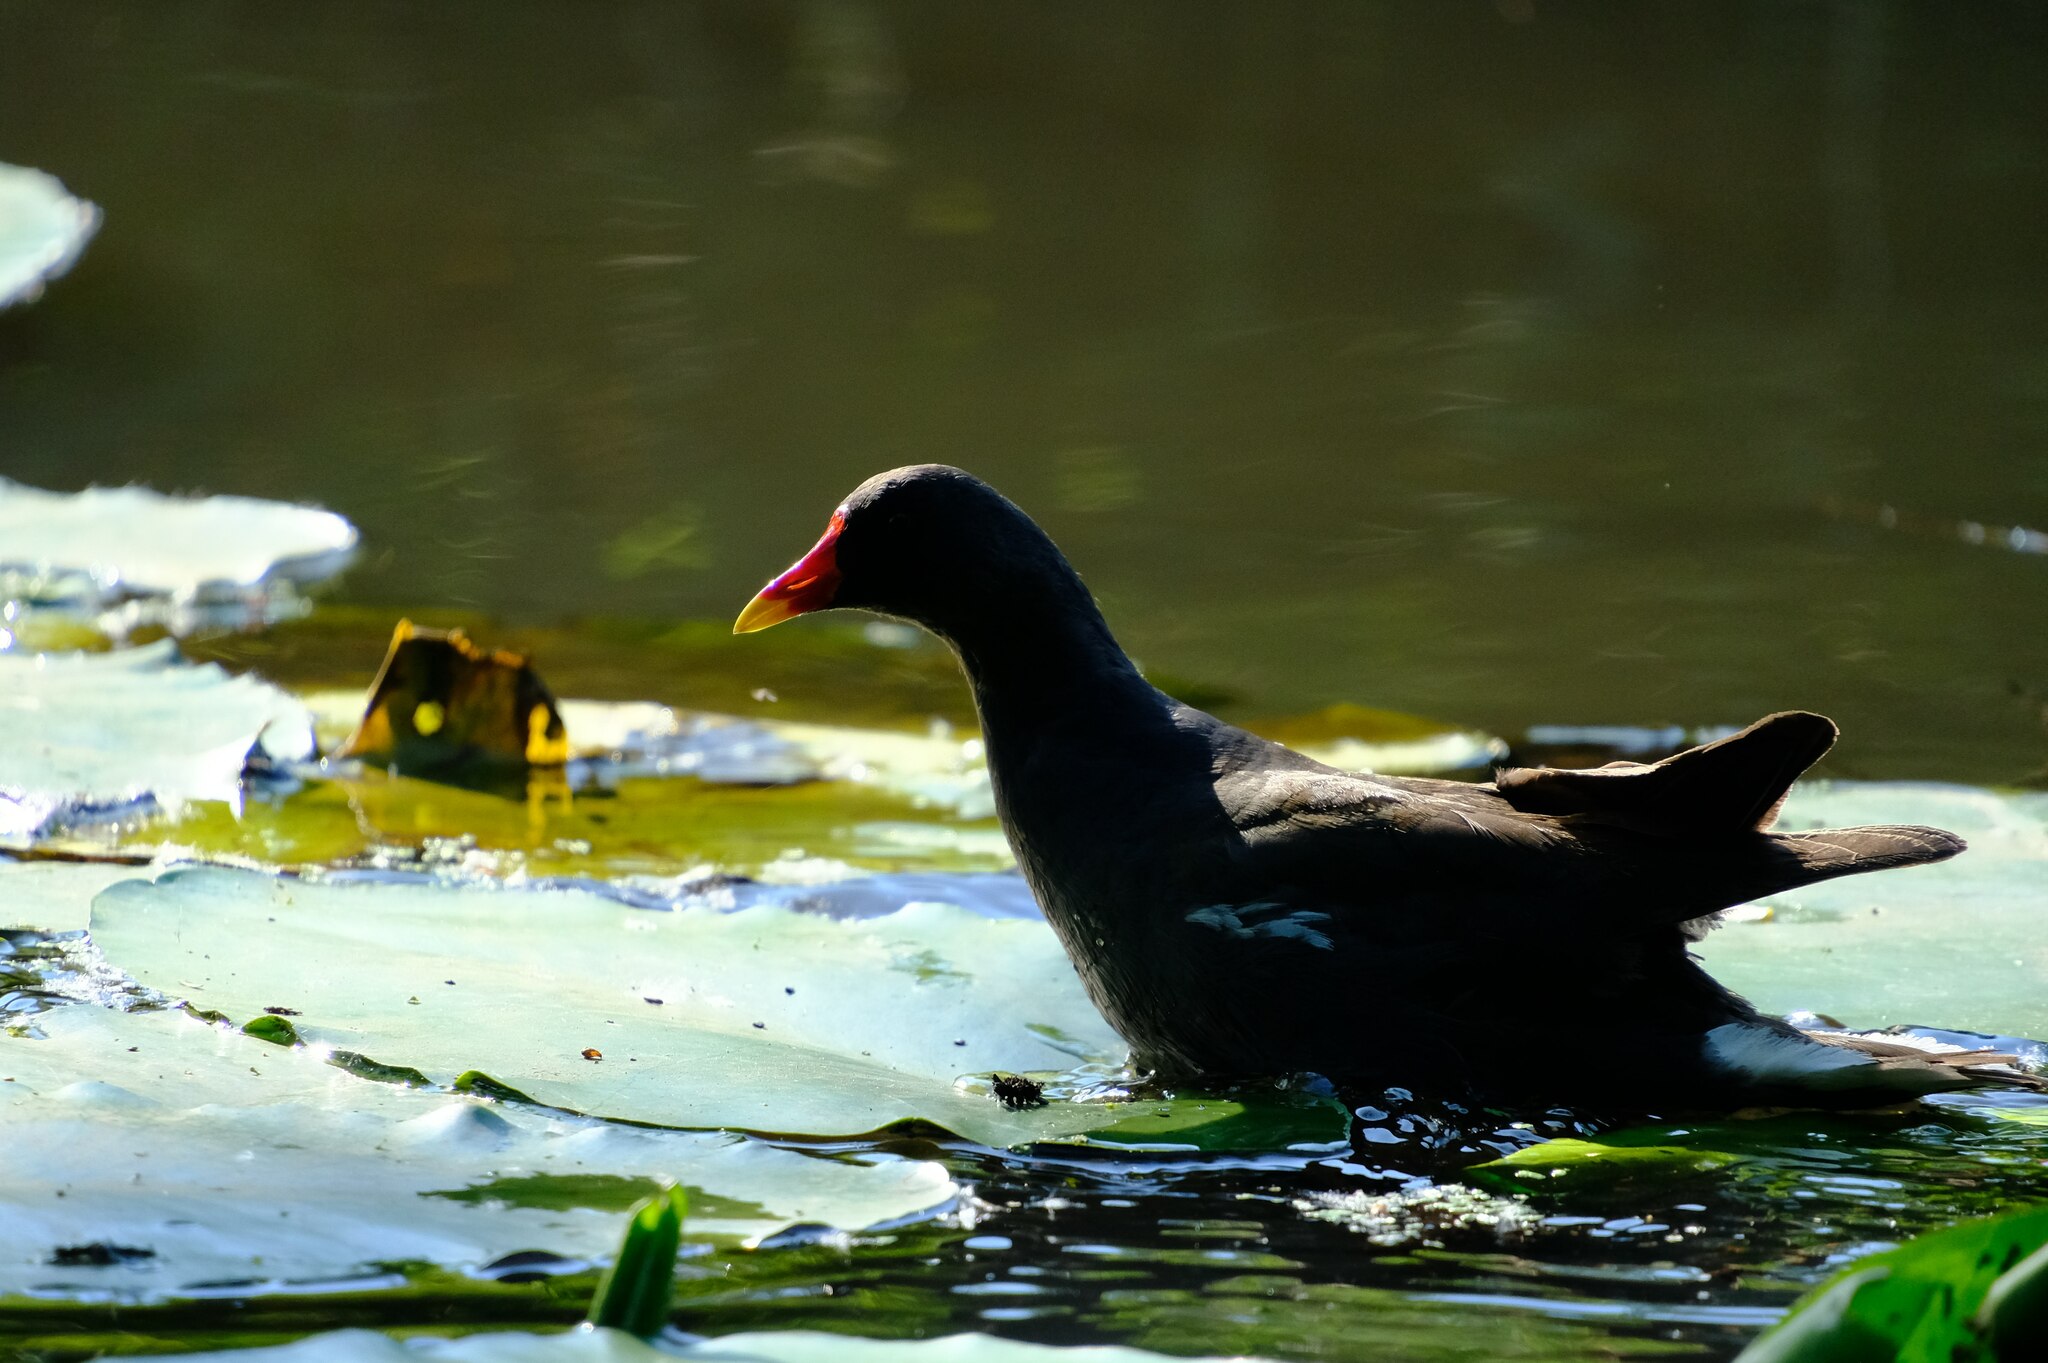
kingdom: Animalia
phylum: Chordata
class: Aves
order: Gruiformes
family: Rallidae
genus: Gallinula
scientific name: Gallinula chloropus
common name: Common moorhen
